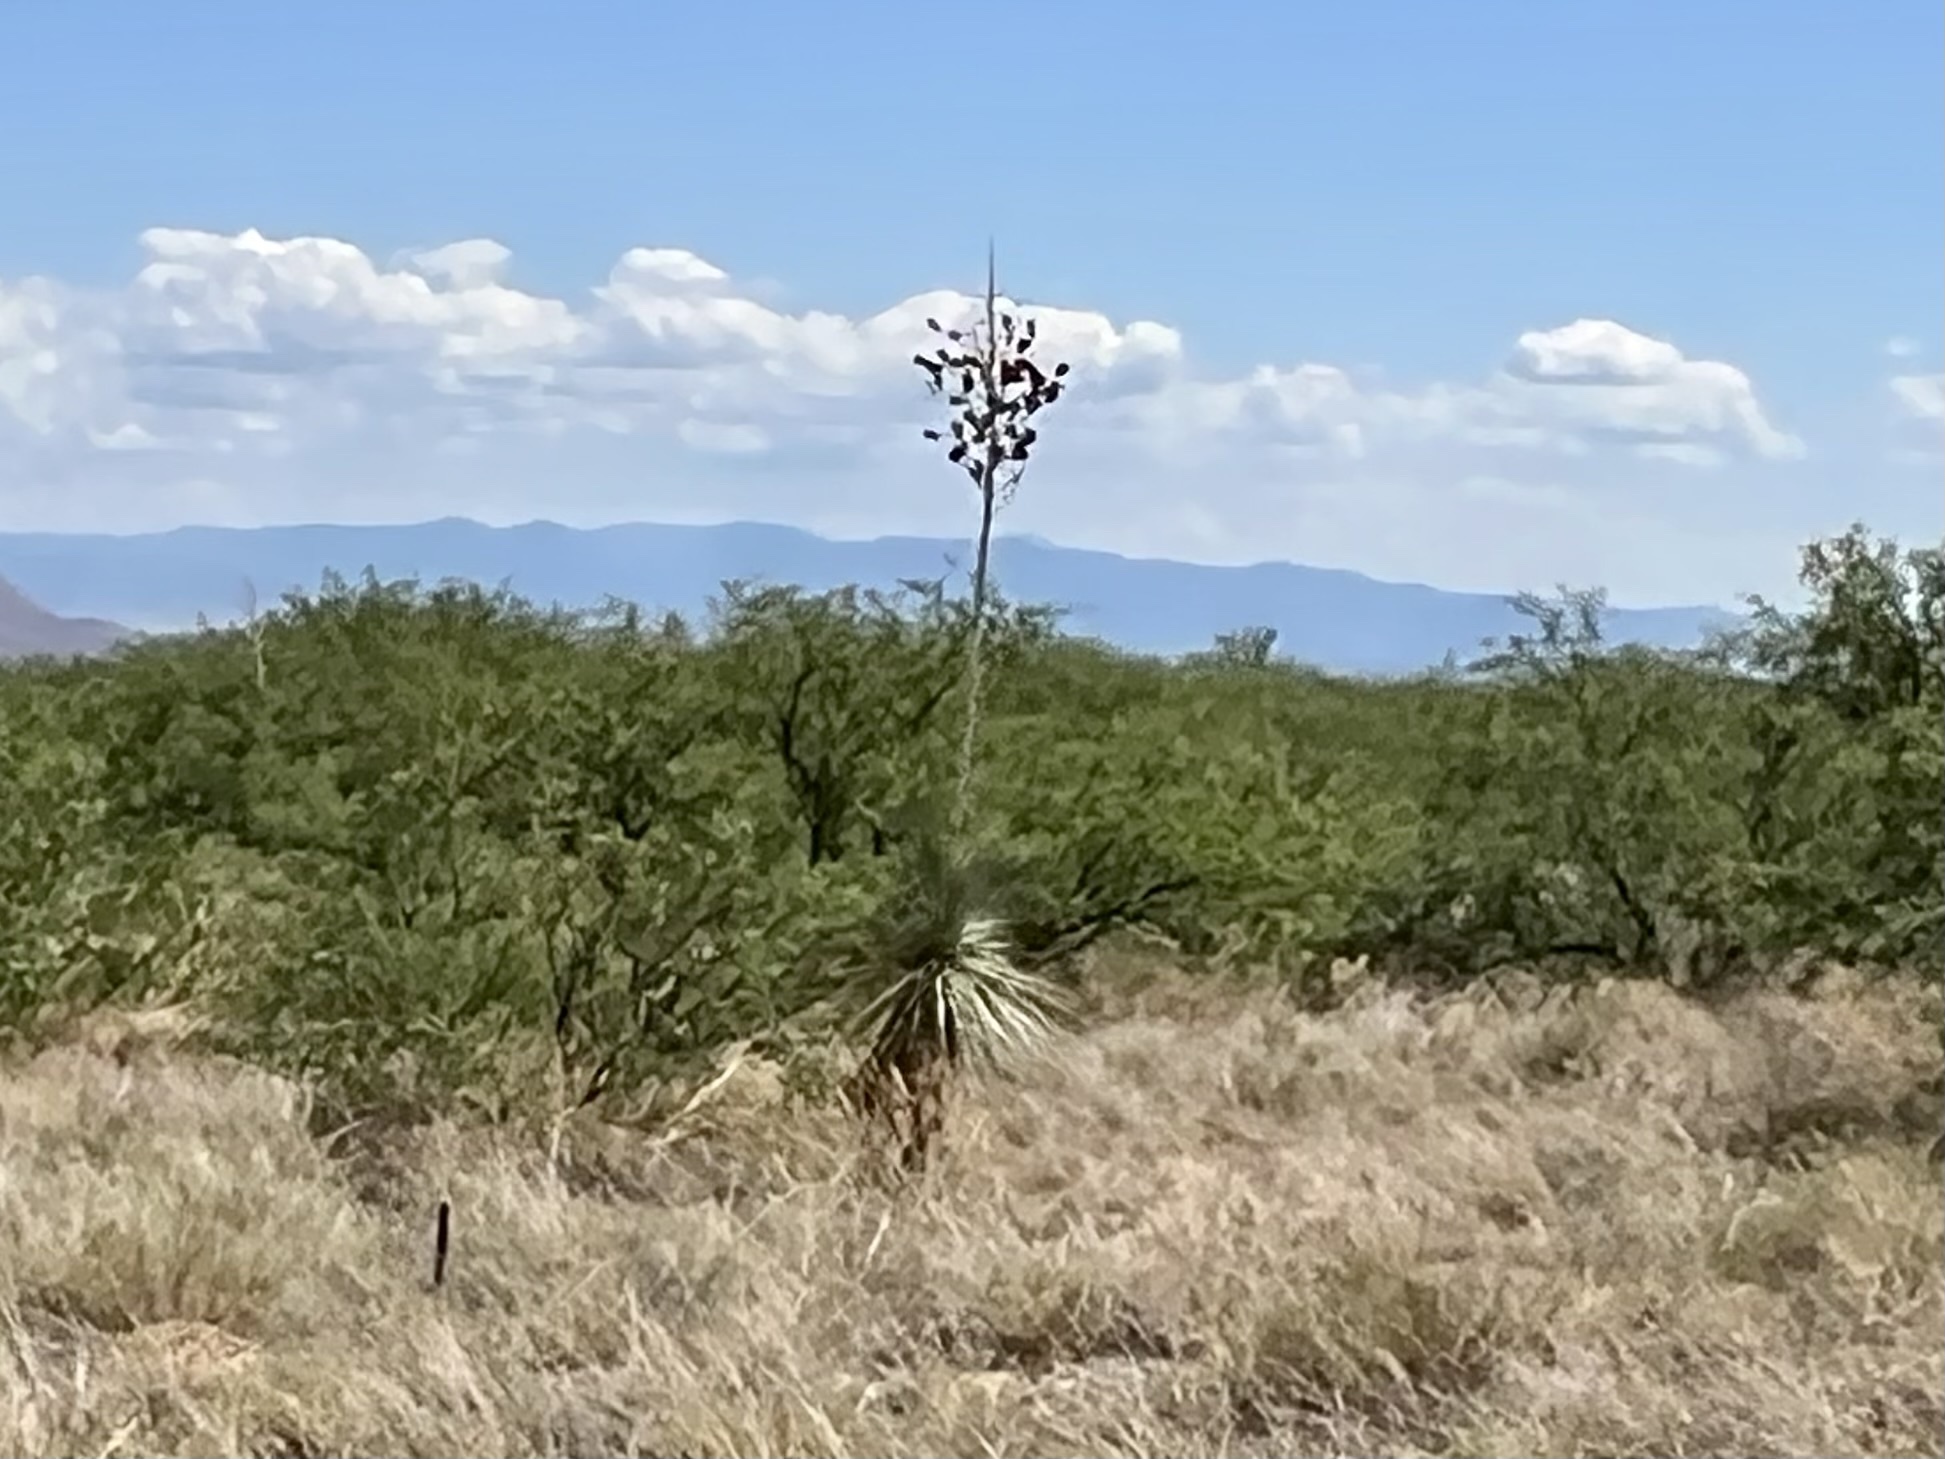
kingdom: Plantae
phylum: Tracheophyta
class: Liliopsida
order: Asparagales
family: Asparagaceae
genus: Yucca
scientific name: Yucca elata
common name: Palmella
